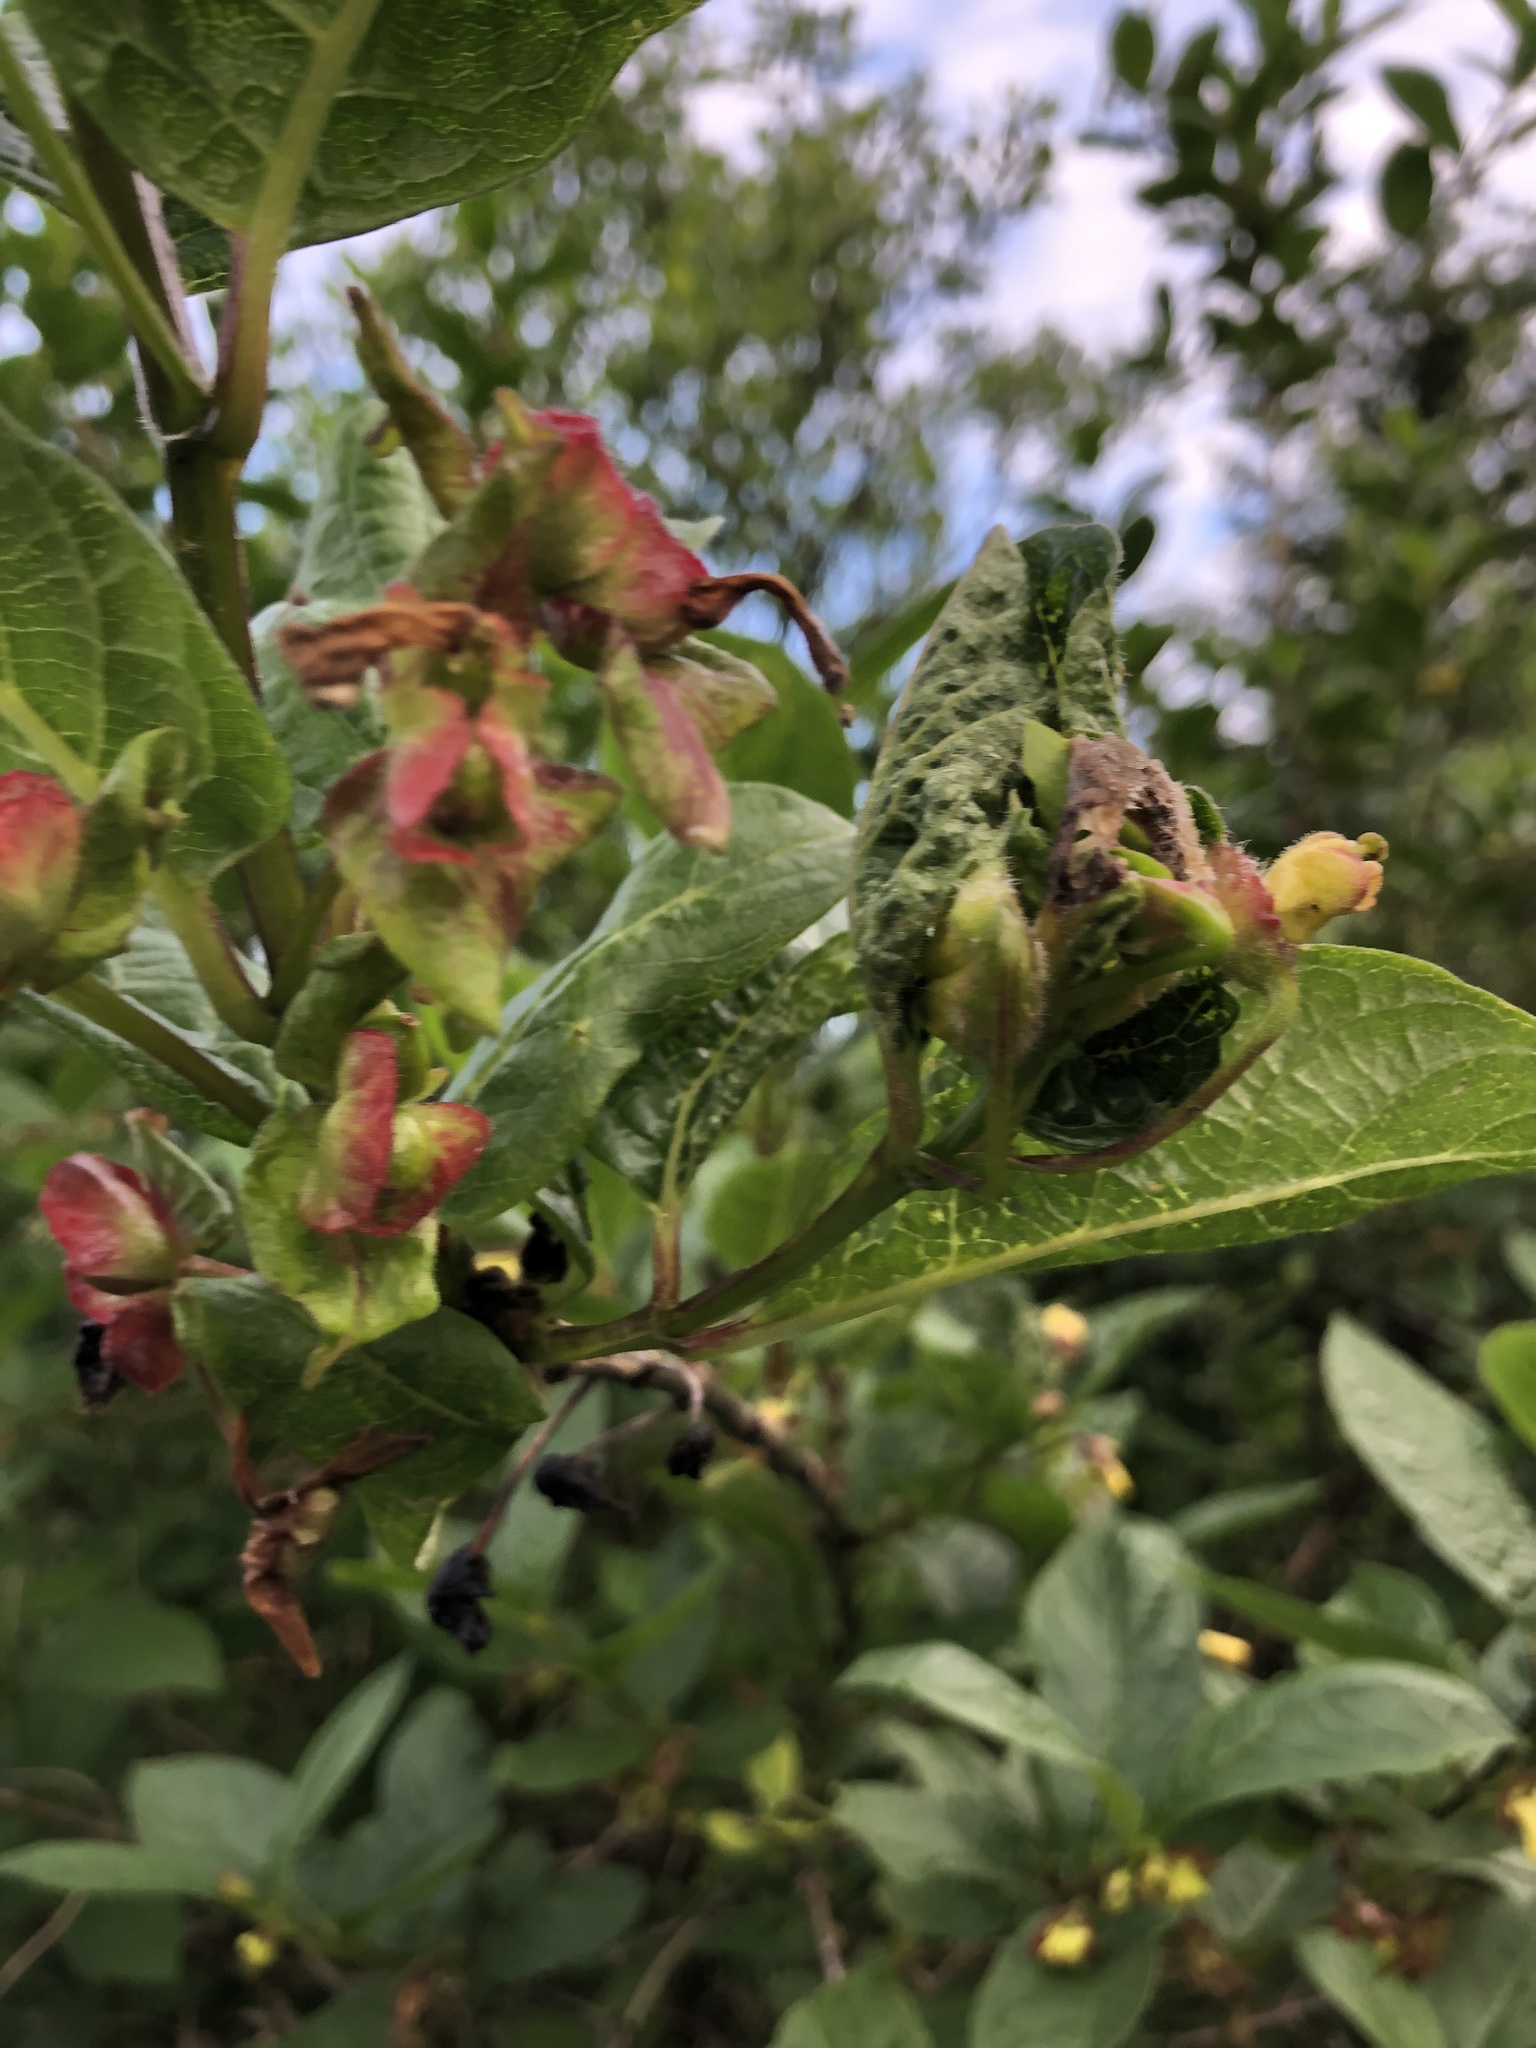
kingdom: Plantae
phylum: Tracheophyta
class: Magnoliopsida
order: Dipsacales
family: Caprifoliaceae
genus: Lonicera
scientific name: Lonicera involucrata
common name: Californian honeysuckle
